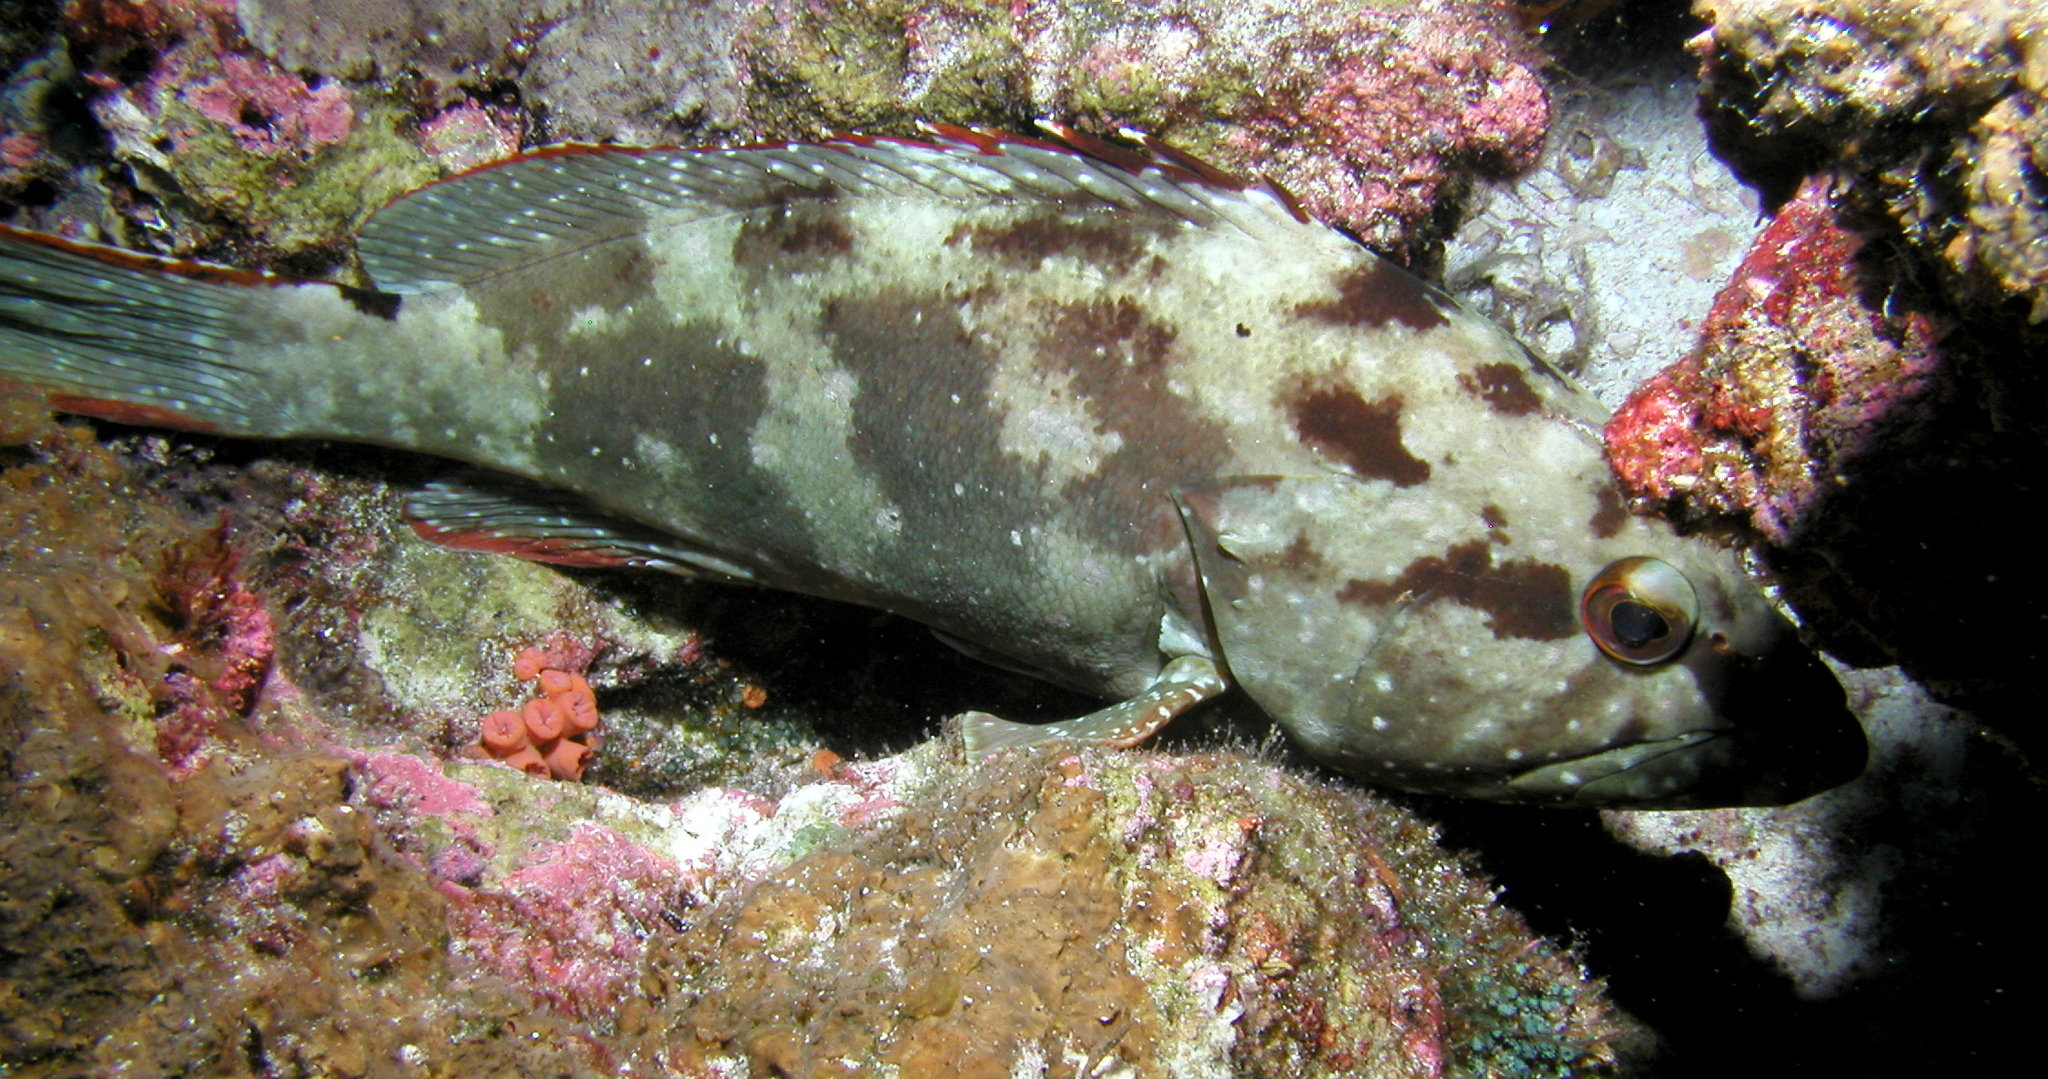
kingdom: Animalia
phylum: Chordata
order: Perciformes
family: Serranidae
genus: Epinephelus
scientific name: Epinephelus labriformis
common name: Flag cabrilla
